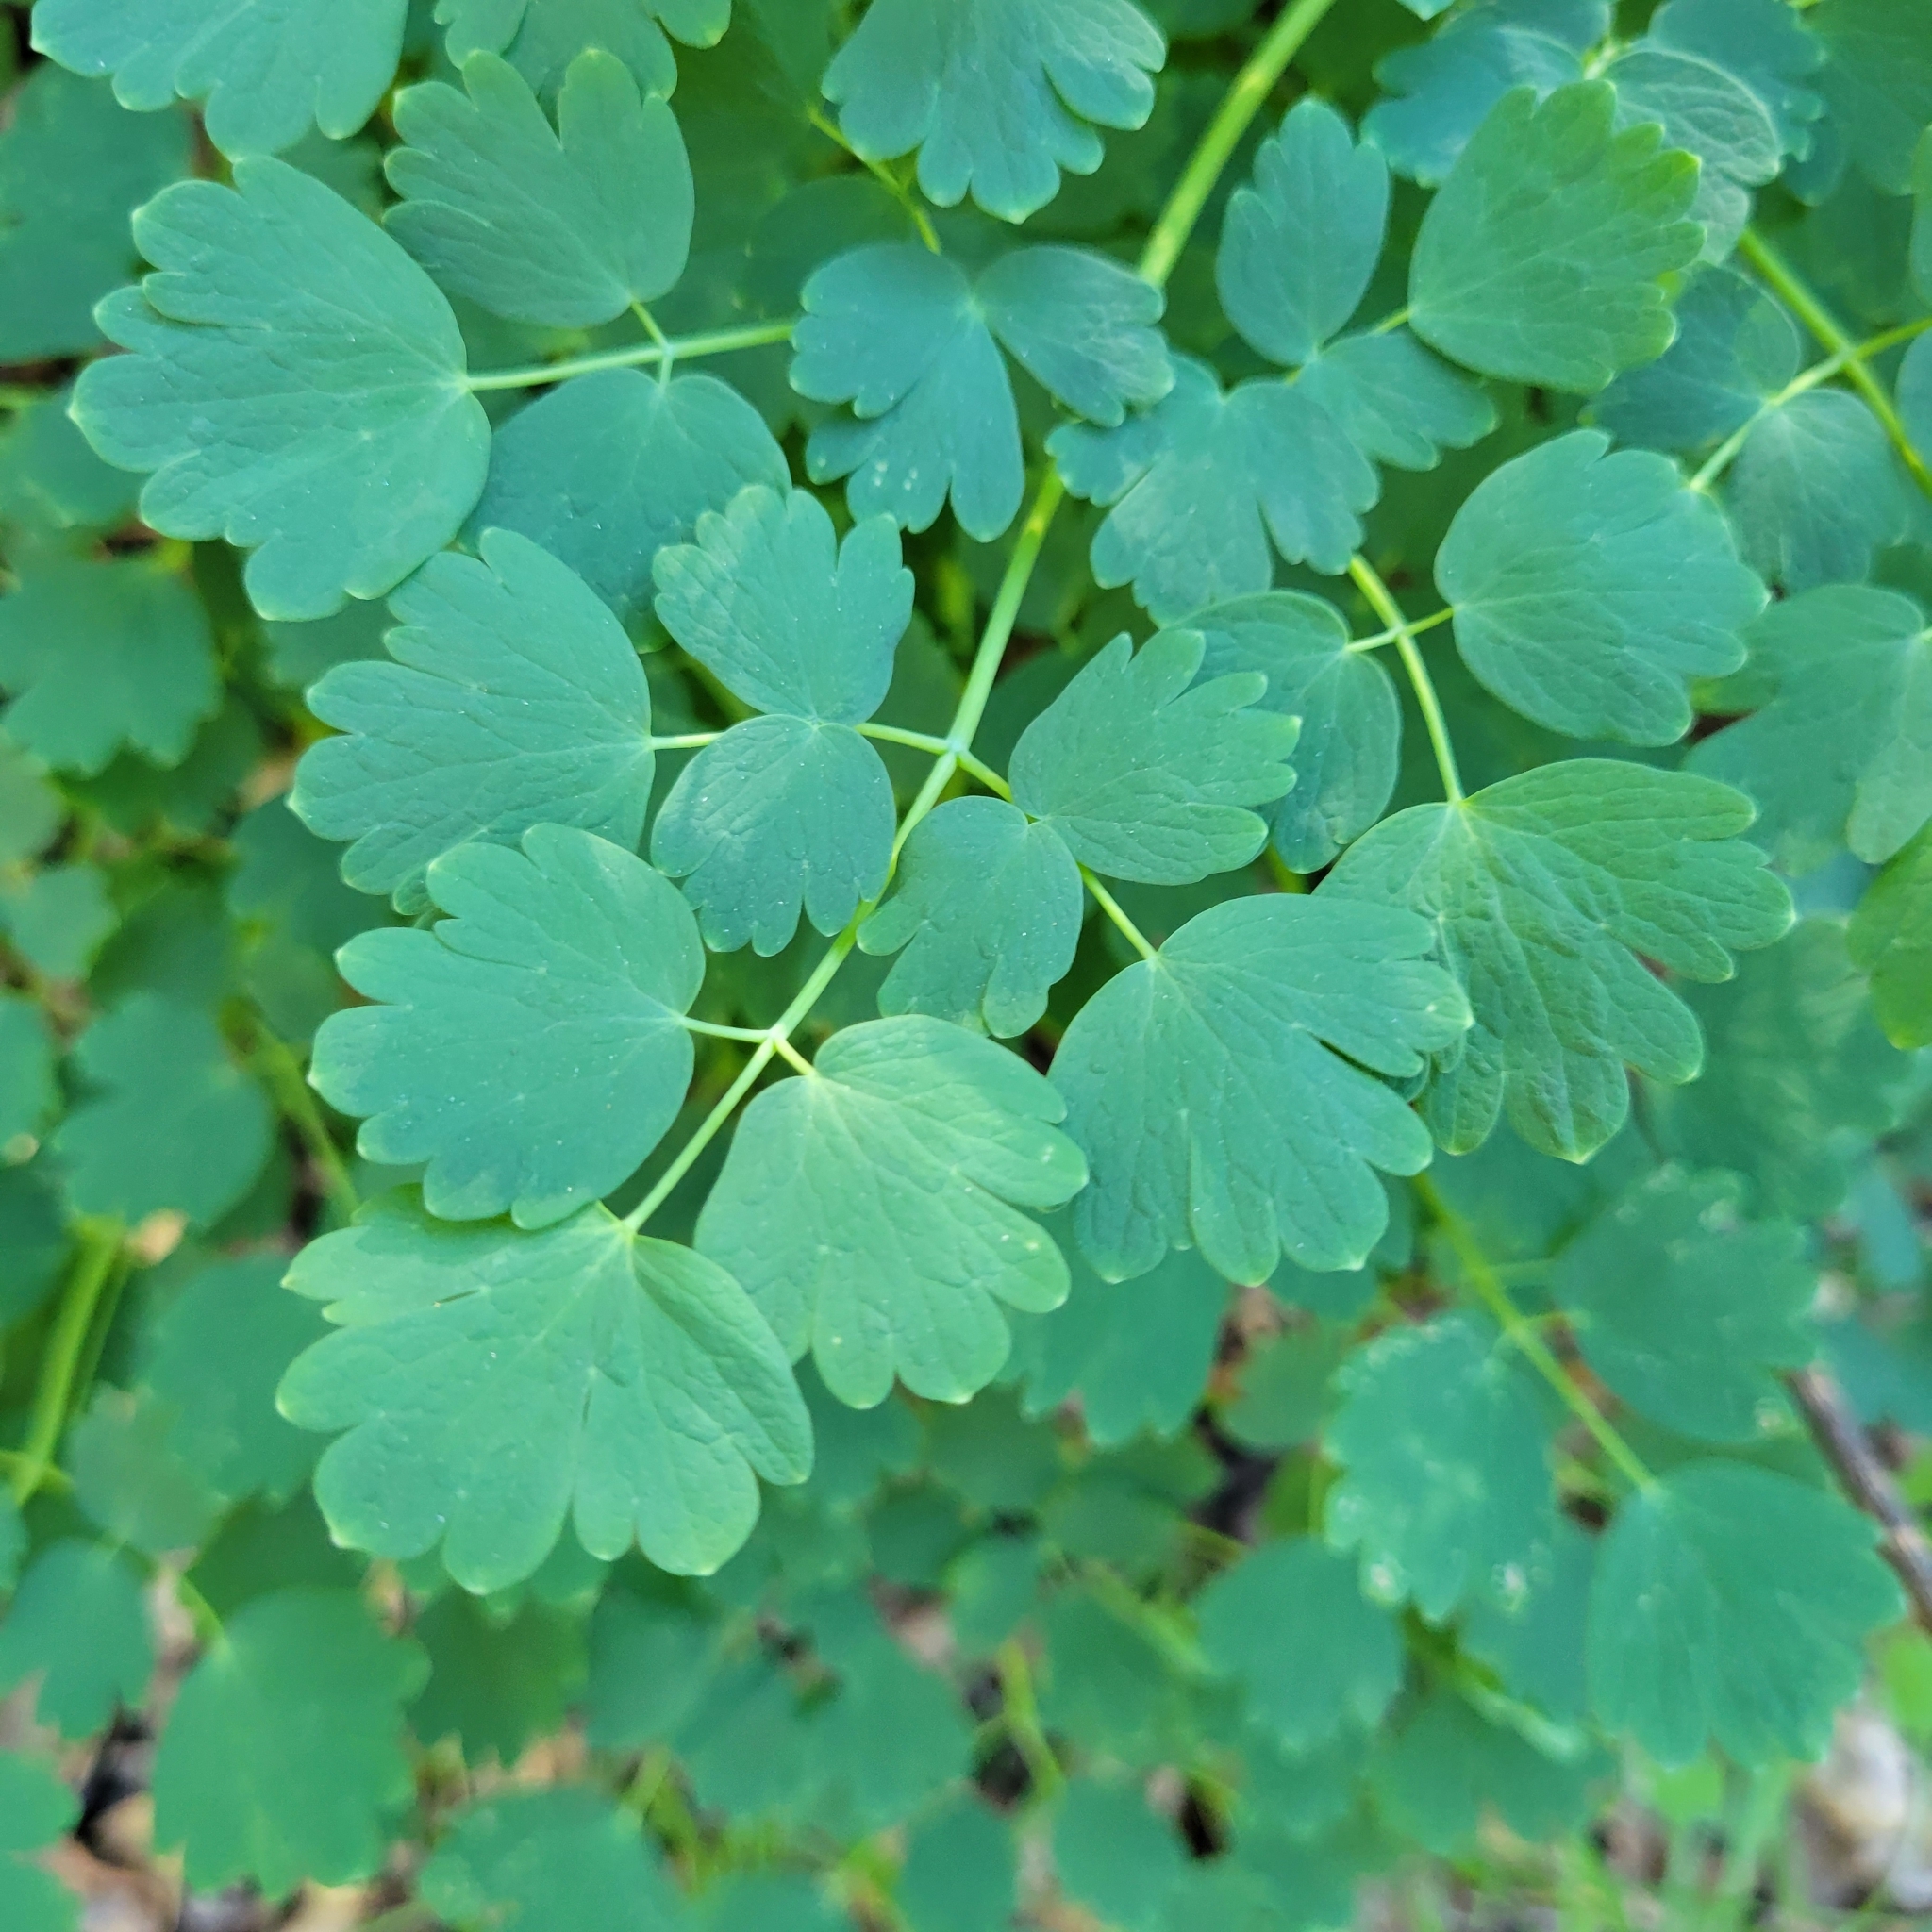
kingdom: Plantae
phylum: Tracheophyta
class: Magnoliopsida
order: Ranunculales
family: Ranunculaceae
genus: Thalictrum
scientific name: Thalictrum fendleri
